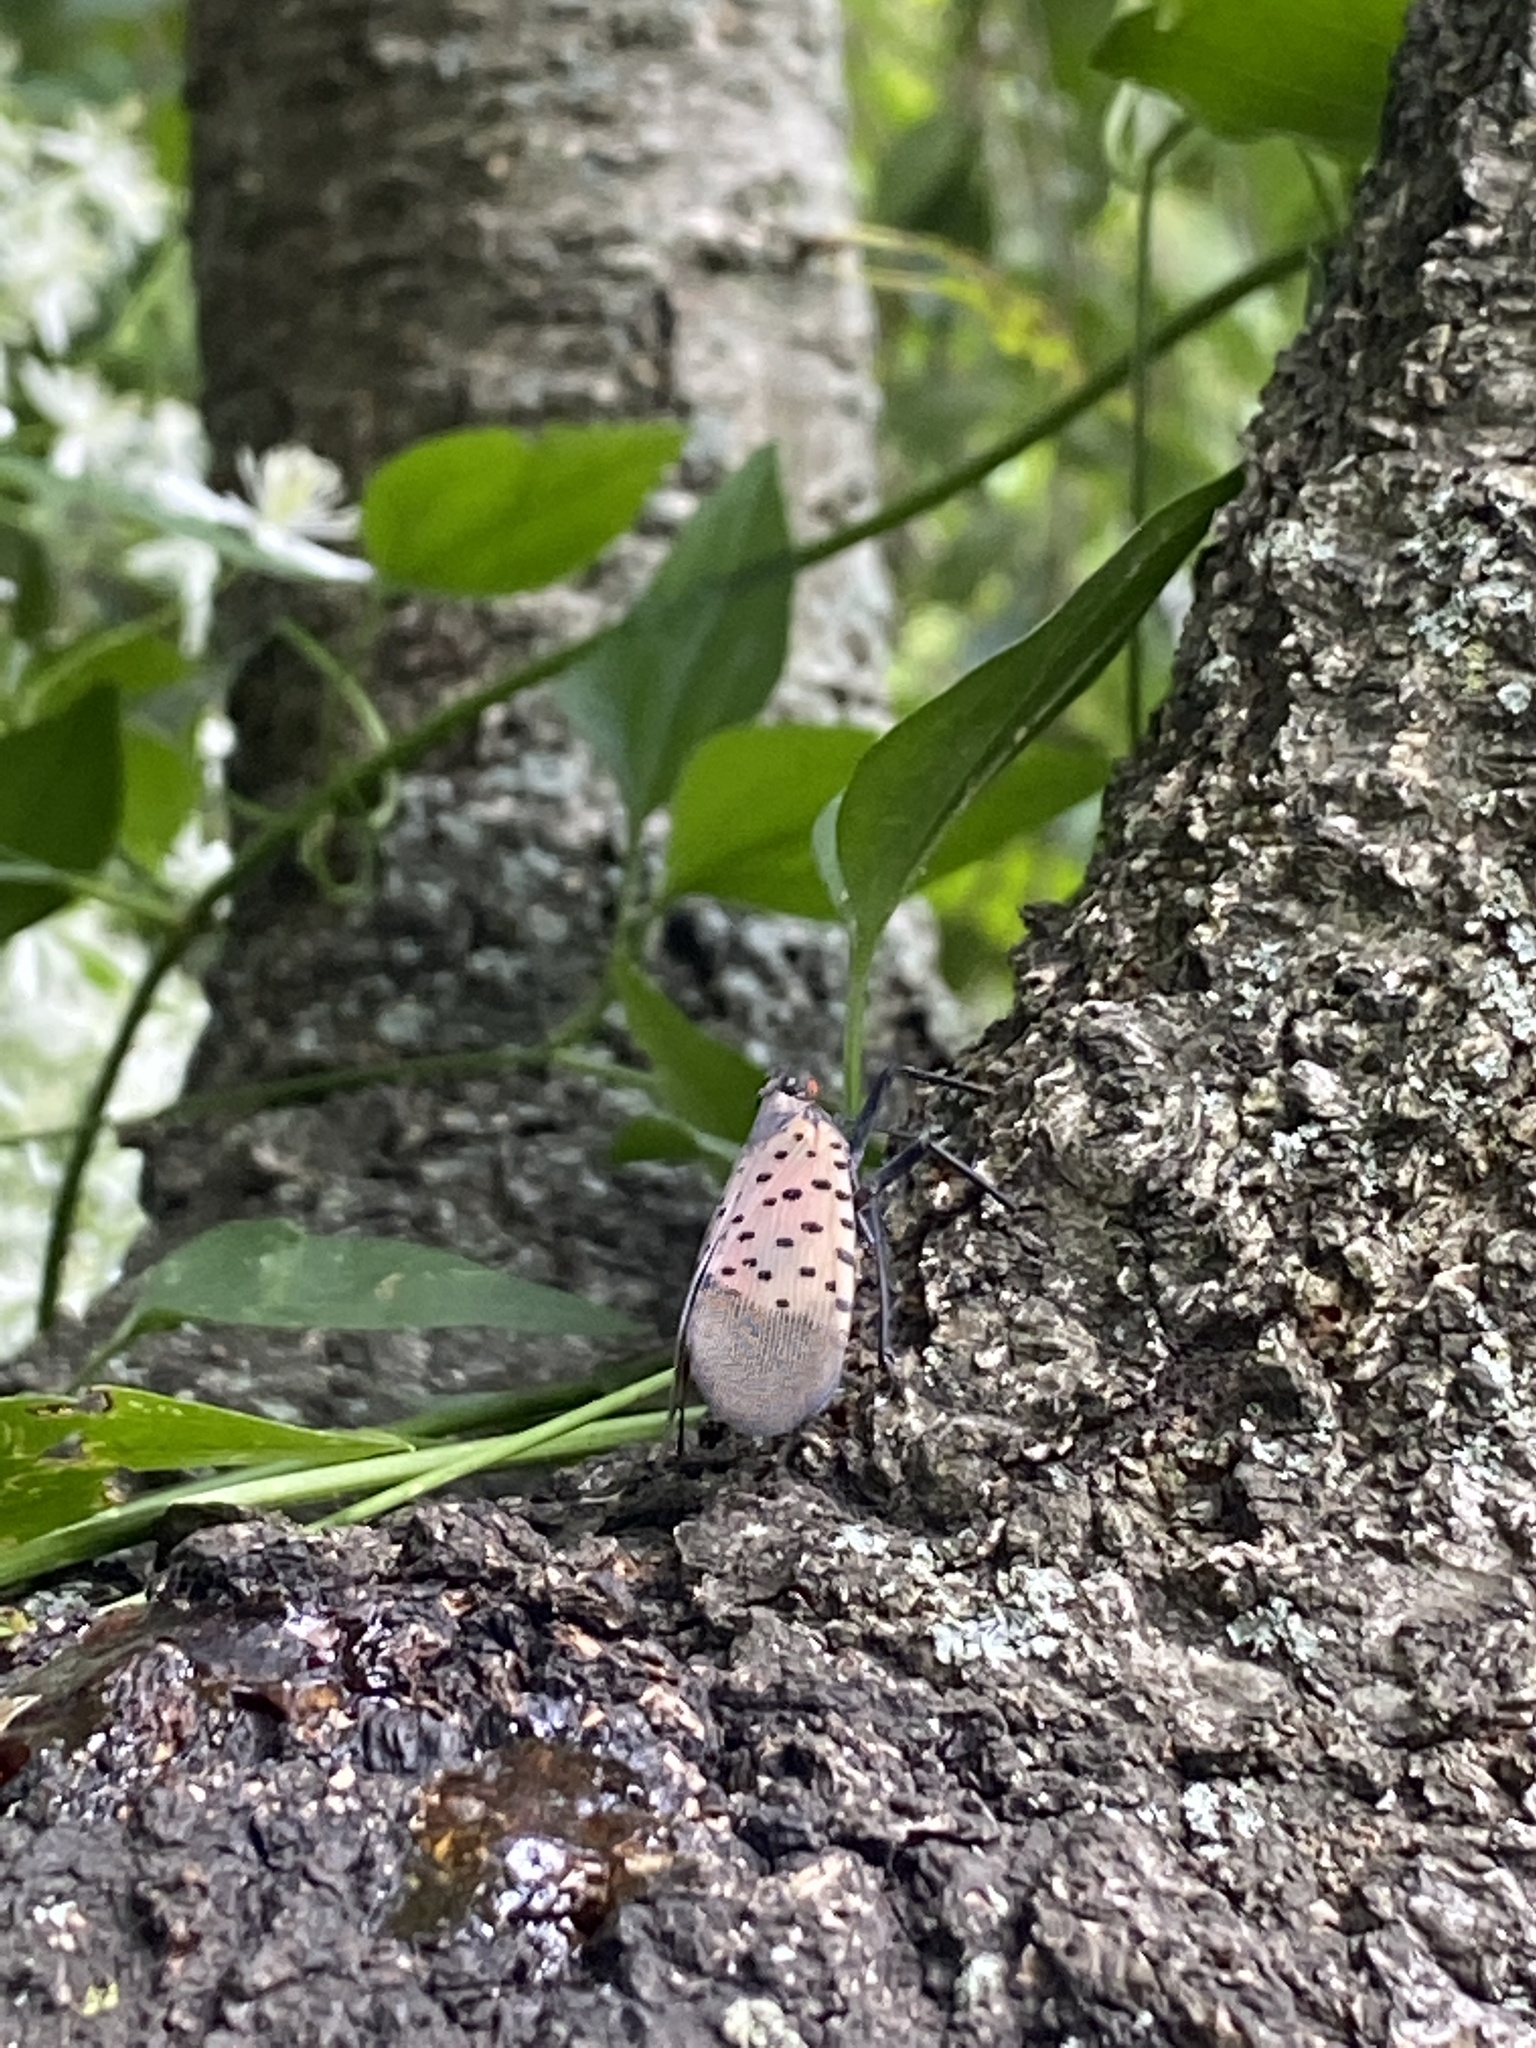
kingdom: Animalia
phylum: Arthropoda
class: Insecta
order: Hemiptera
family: Fulgoridae
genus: Lycorma
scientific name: Lycorma delicatula
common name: Spotted lanternfly
